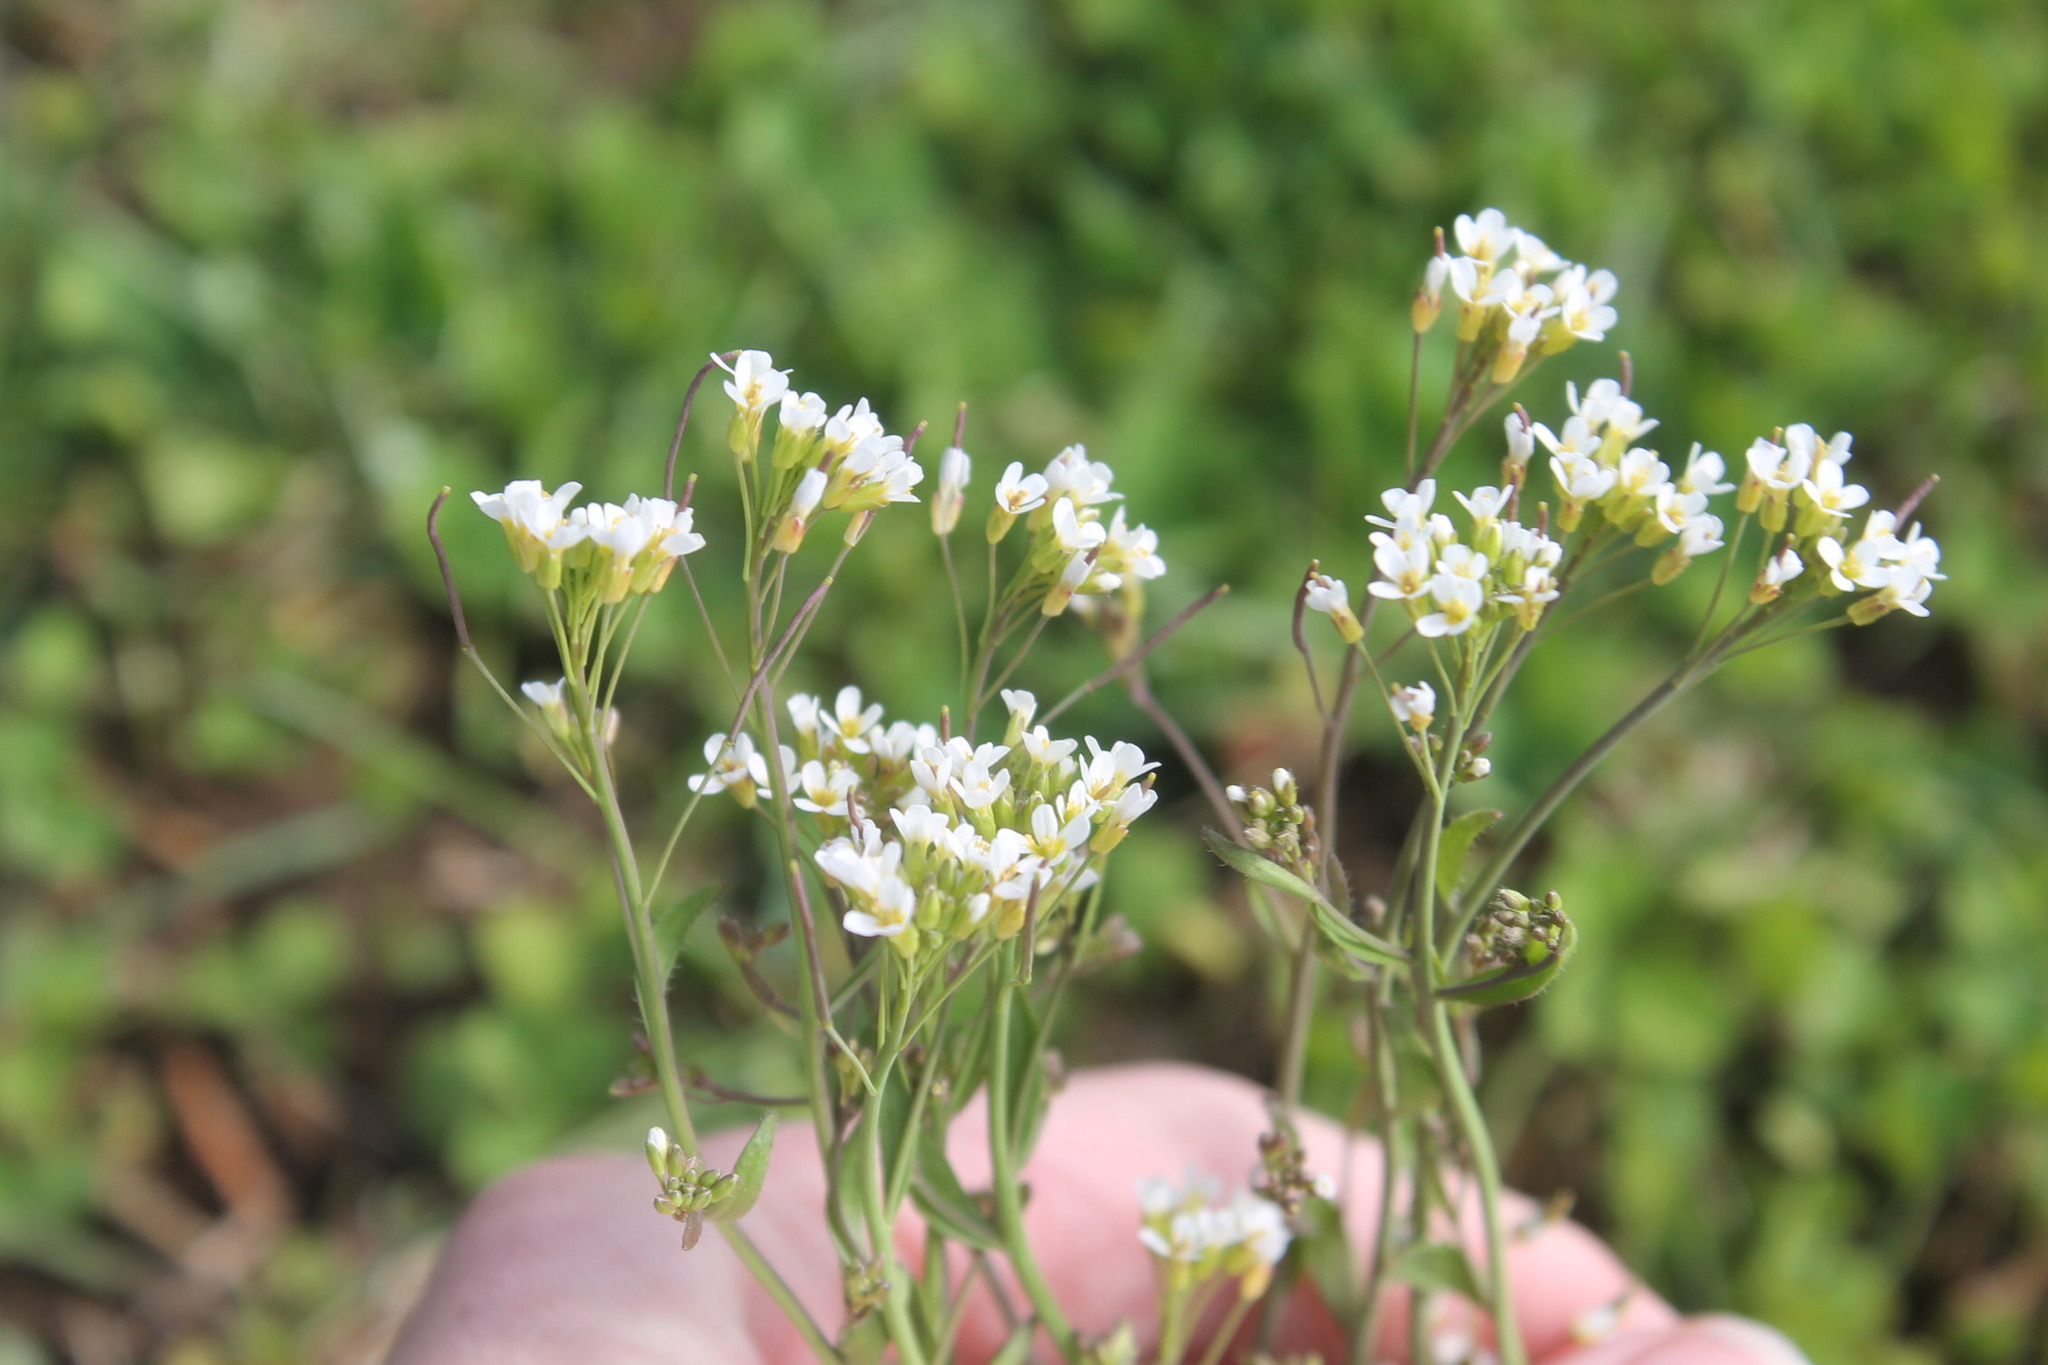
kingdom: Plantae
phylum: Tracheophyta
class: Magnoliopsida
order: Brassicales
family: Brassicaceae
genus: Arabidopsis
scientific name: Arabidopsis thaliana
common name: Thale cress
